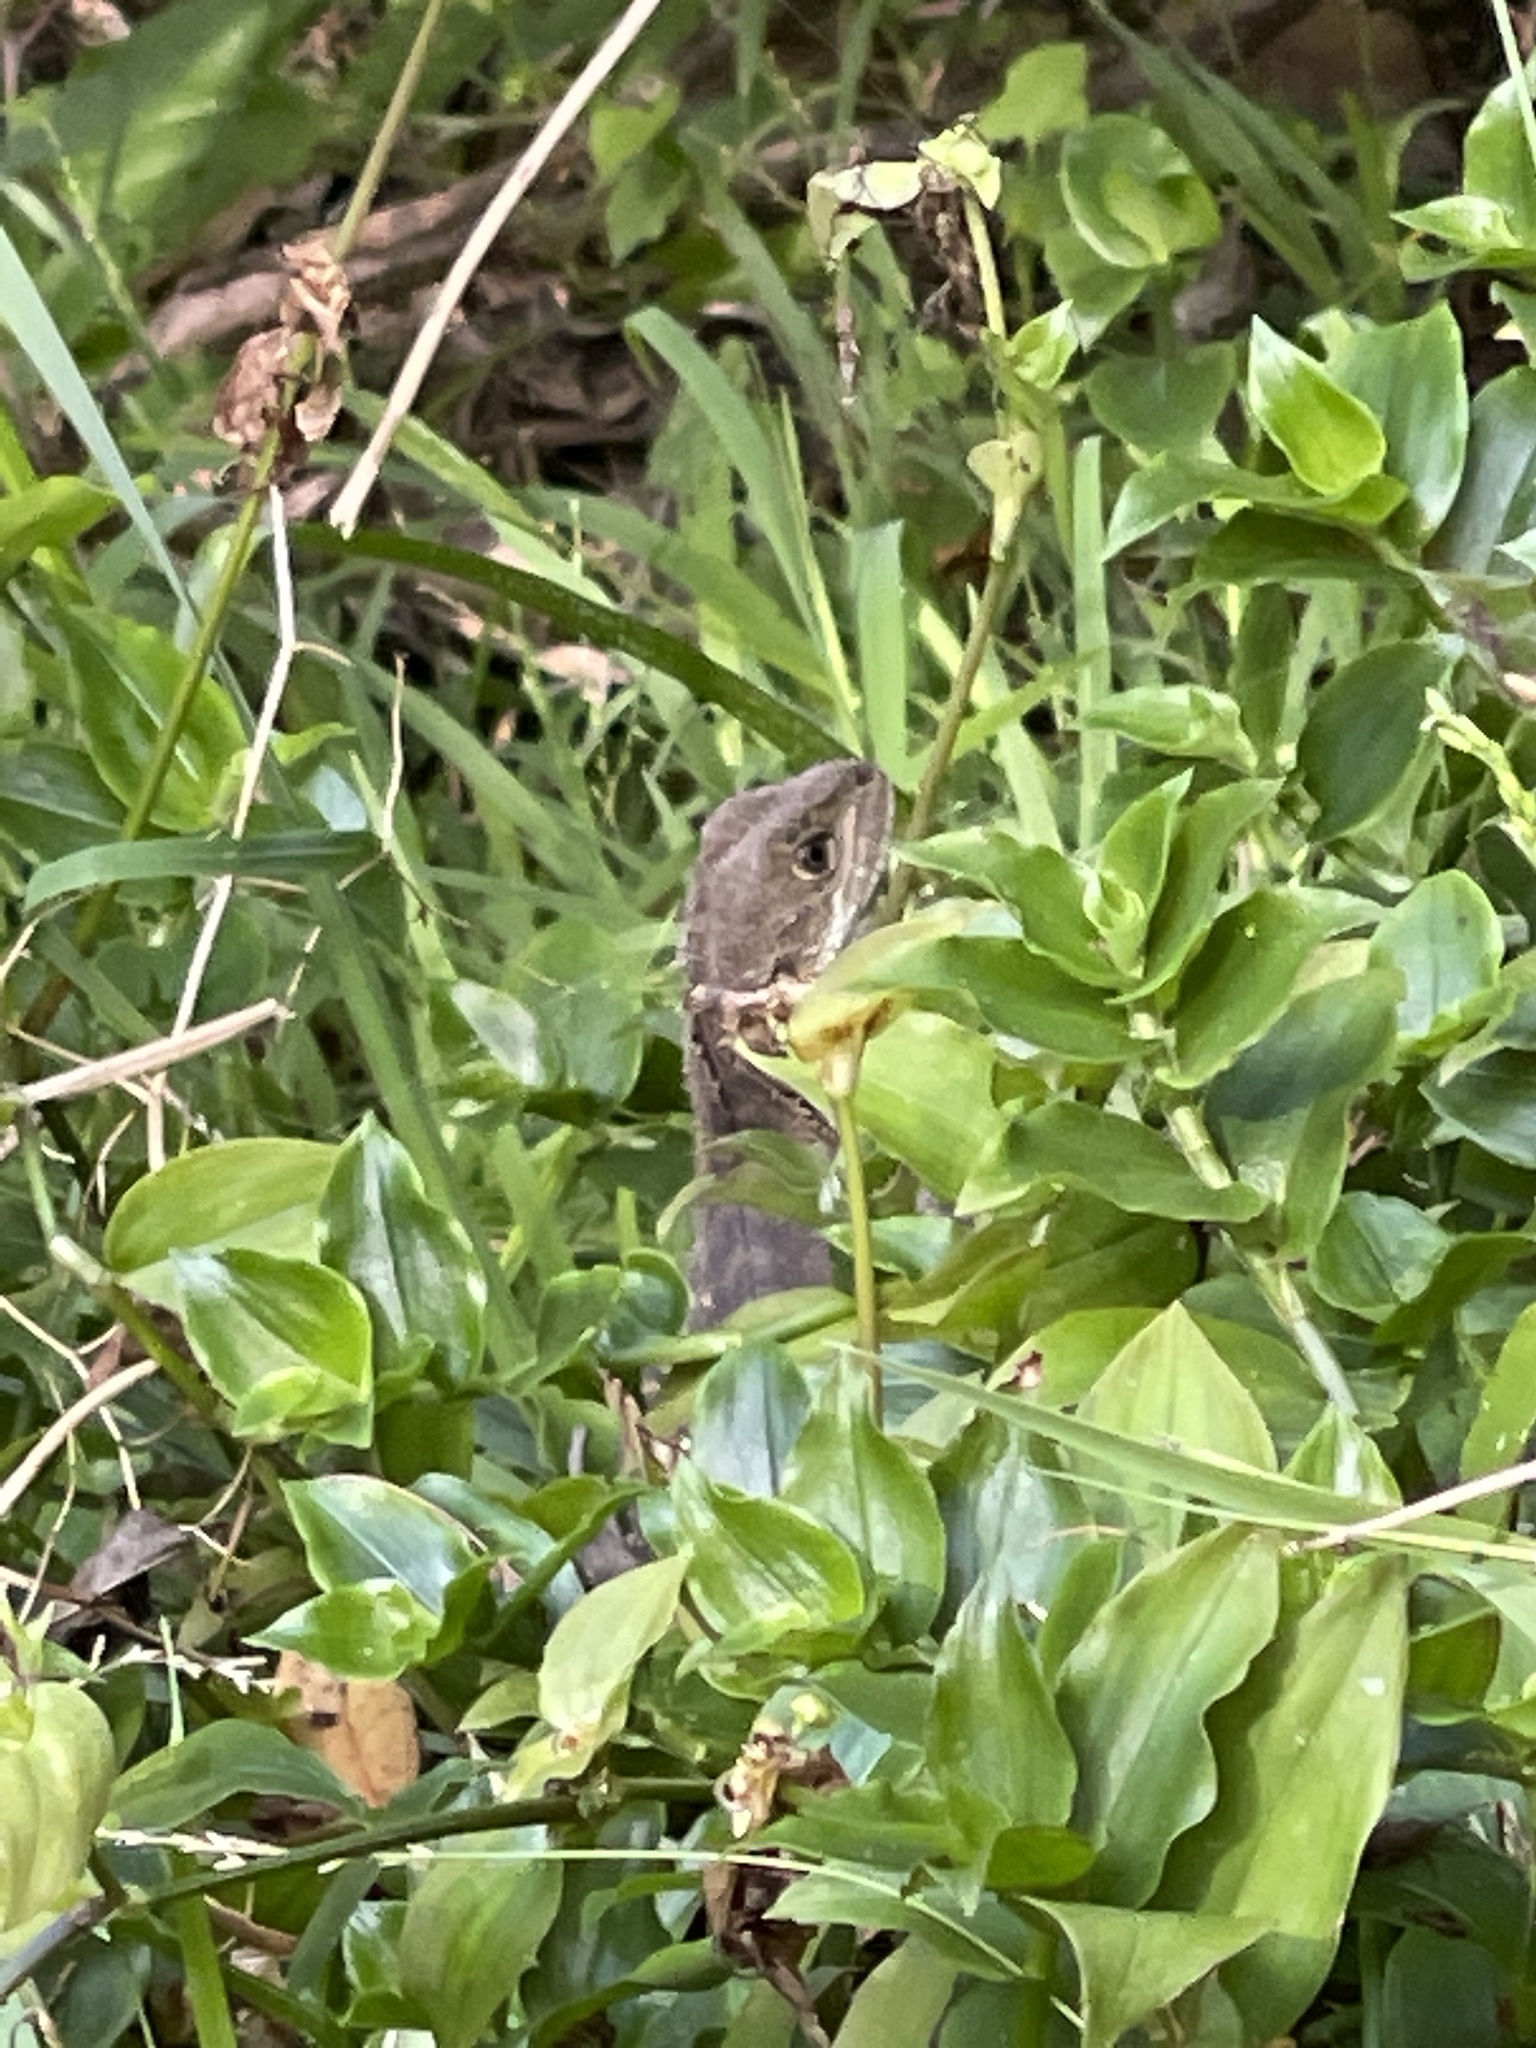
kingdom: Animalia
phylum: Chordata
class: Squamata
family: Agamidae
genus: Intellagama
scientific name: Intellagama lesueurii
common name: Eastern water dragon
